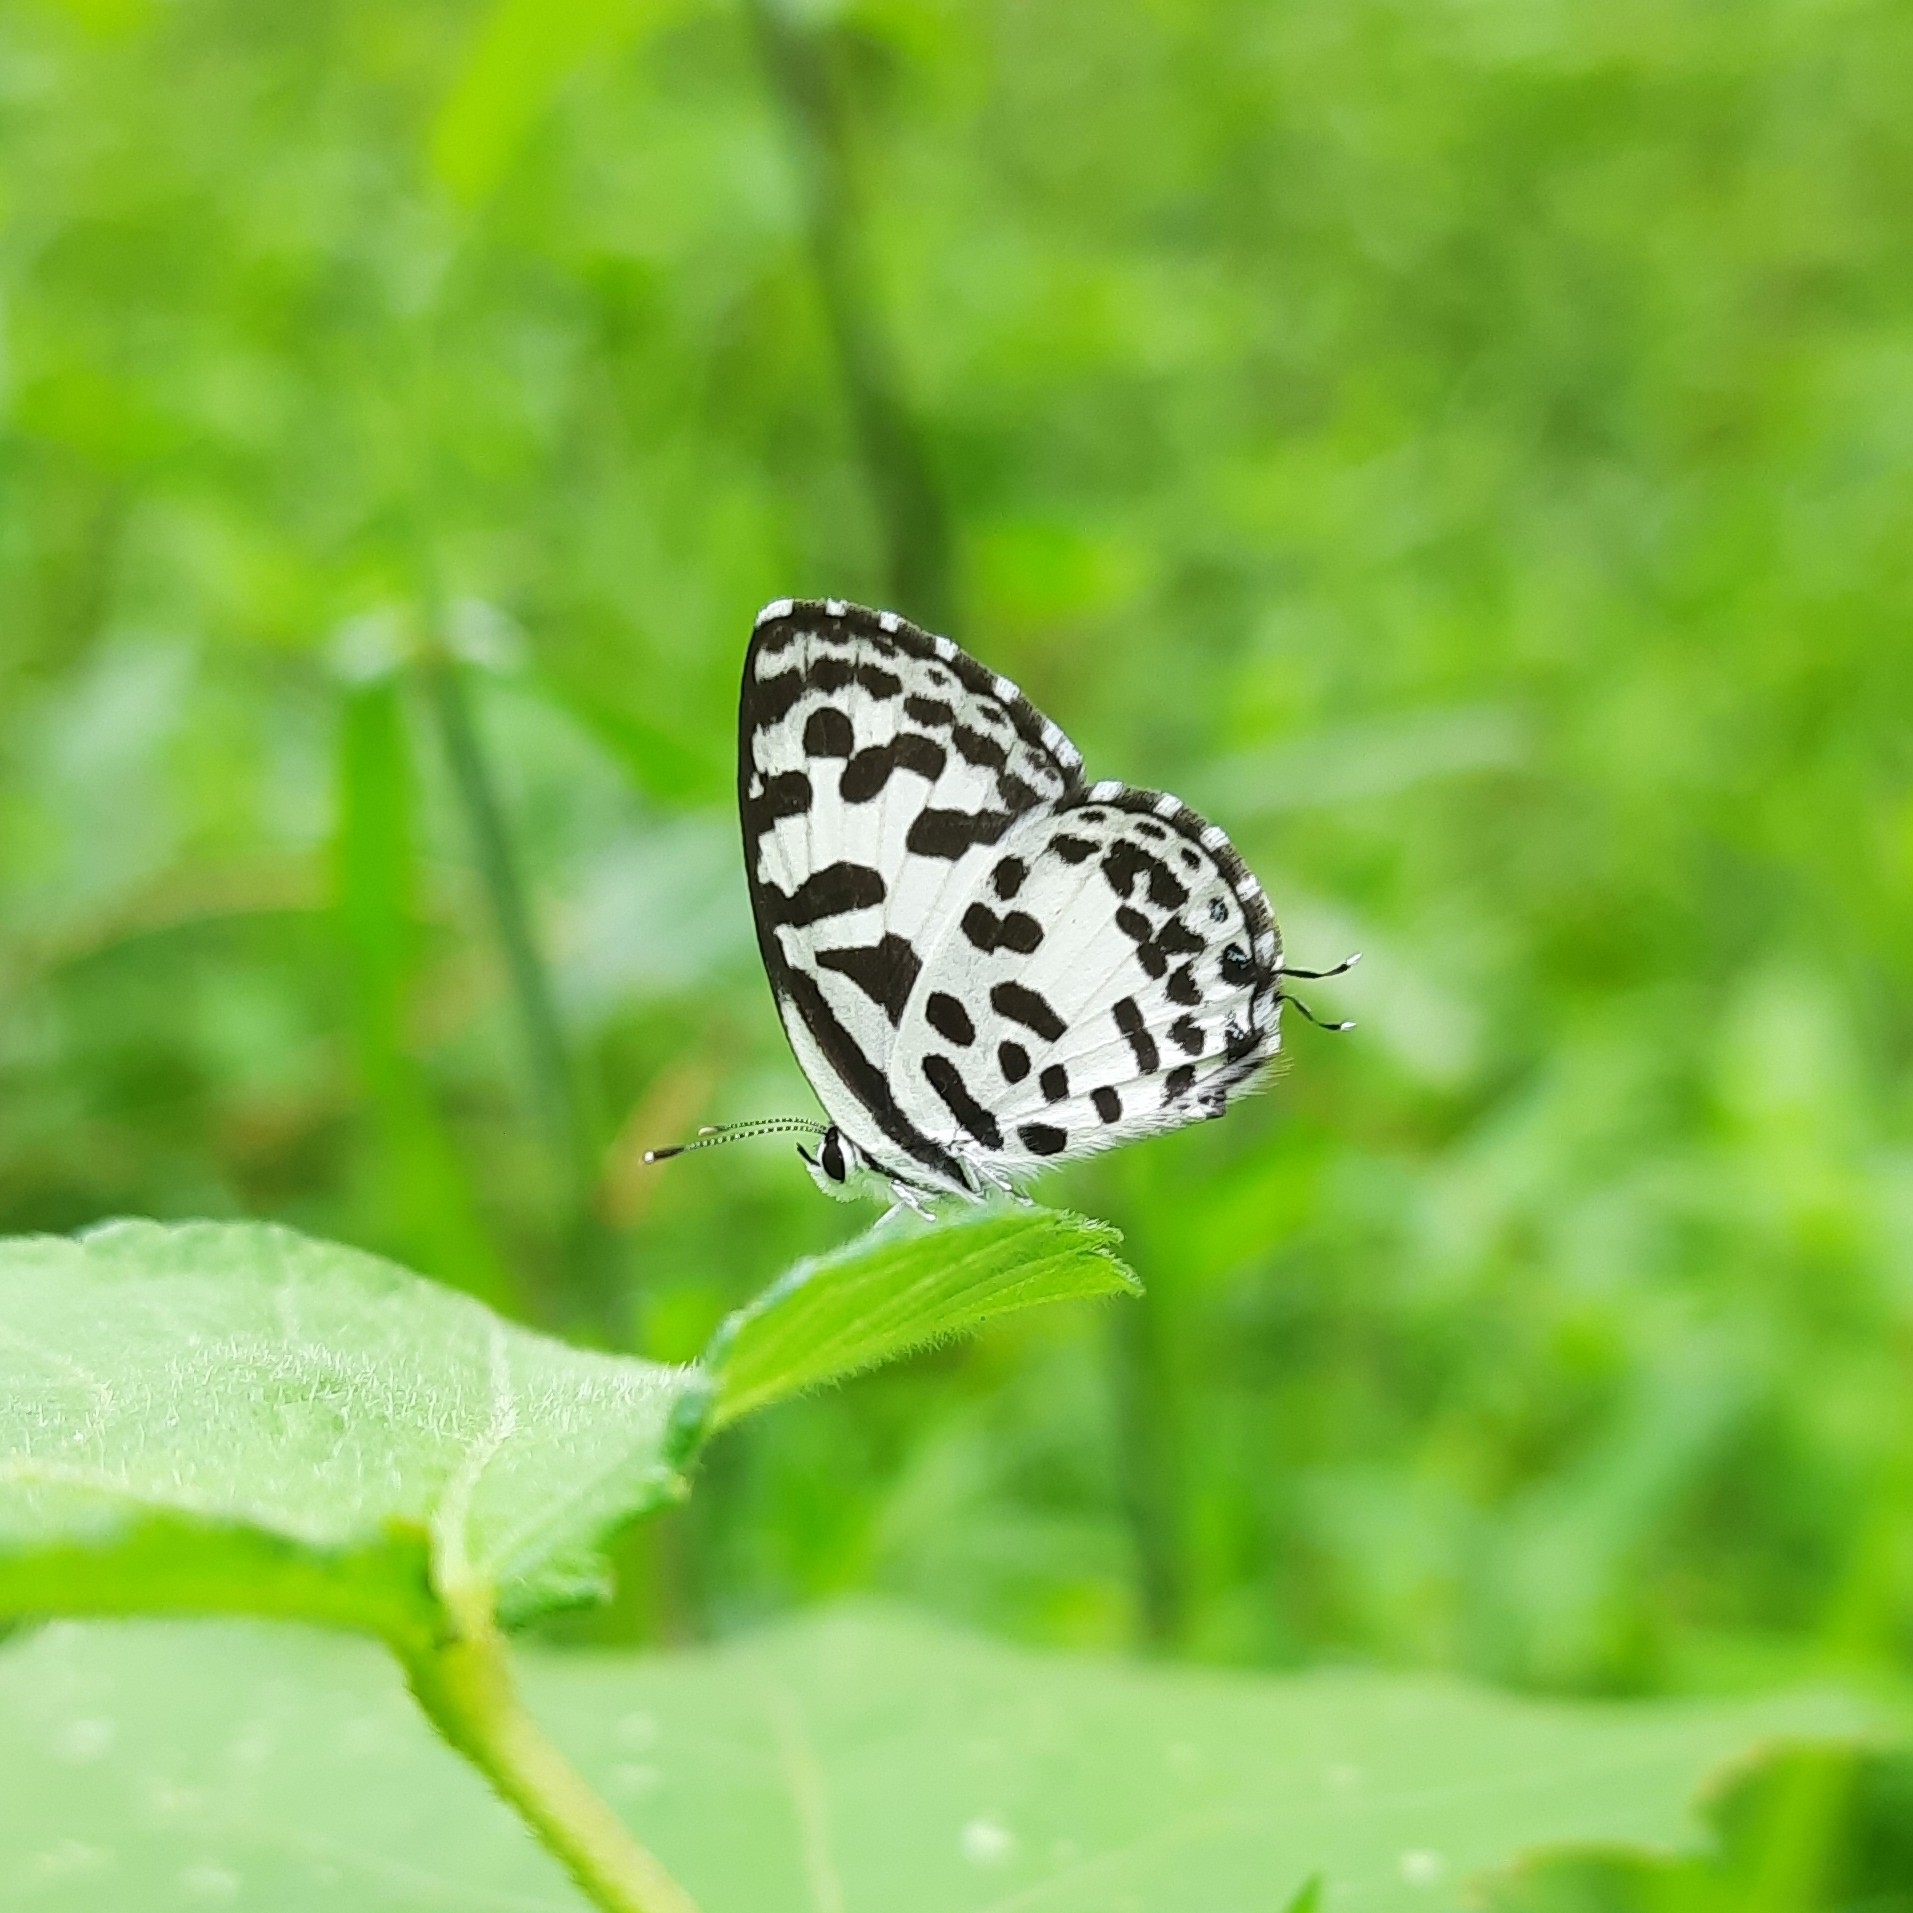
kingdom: Animalia
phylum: Arthropoda
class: Insecta
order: Lepidoptera
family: Lycaenidae
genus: Castalius
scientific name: Castalius rosimon
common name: Common pierrot
